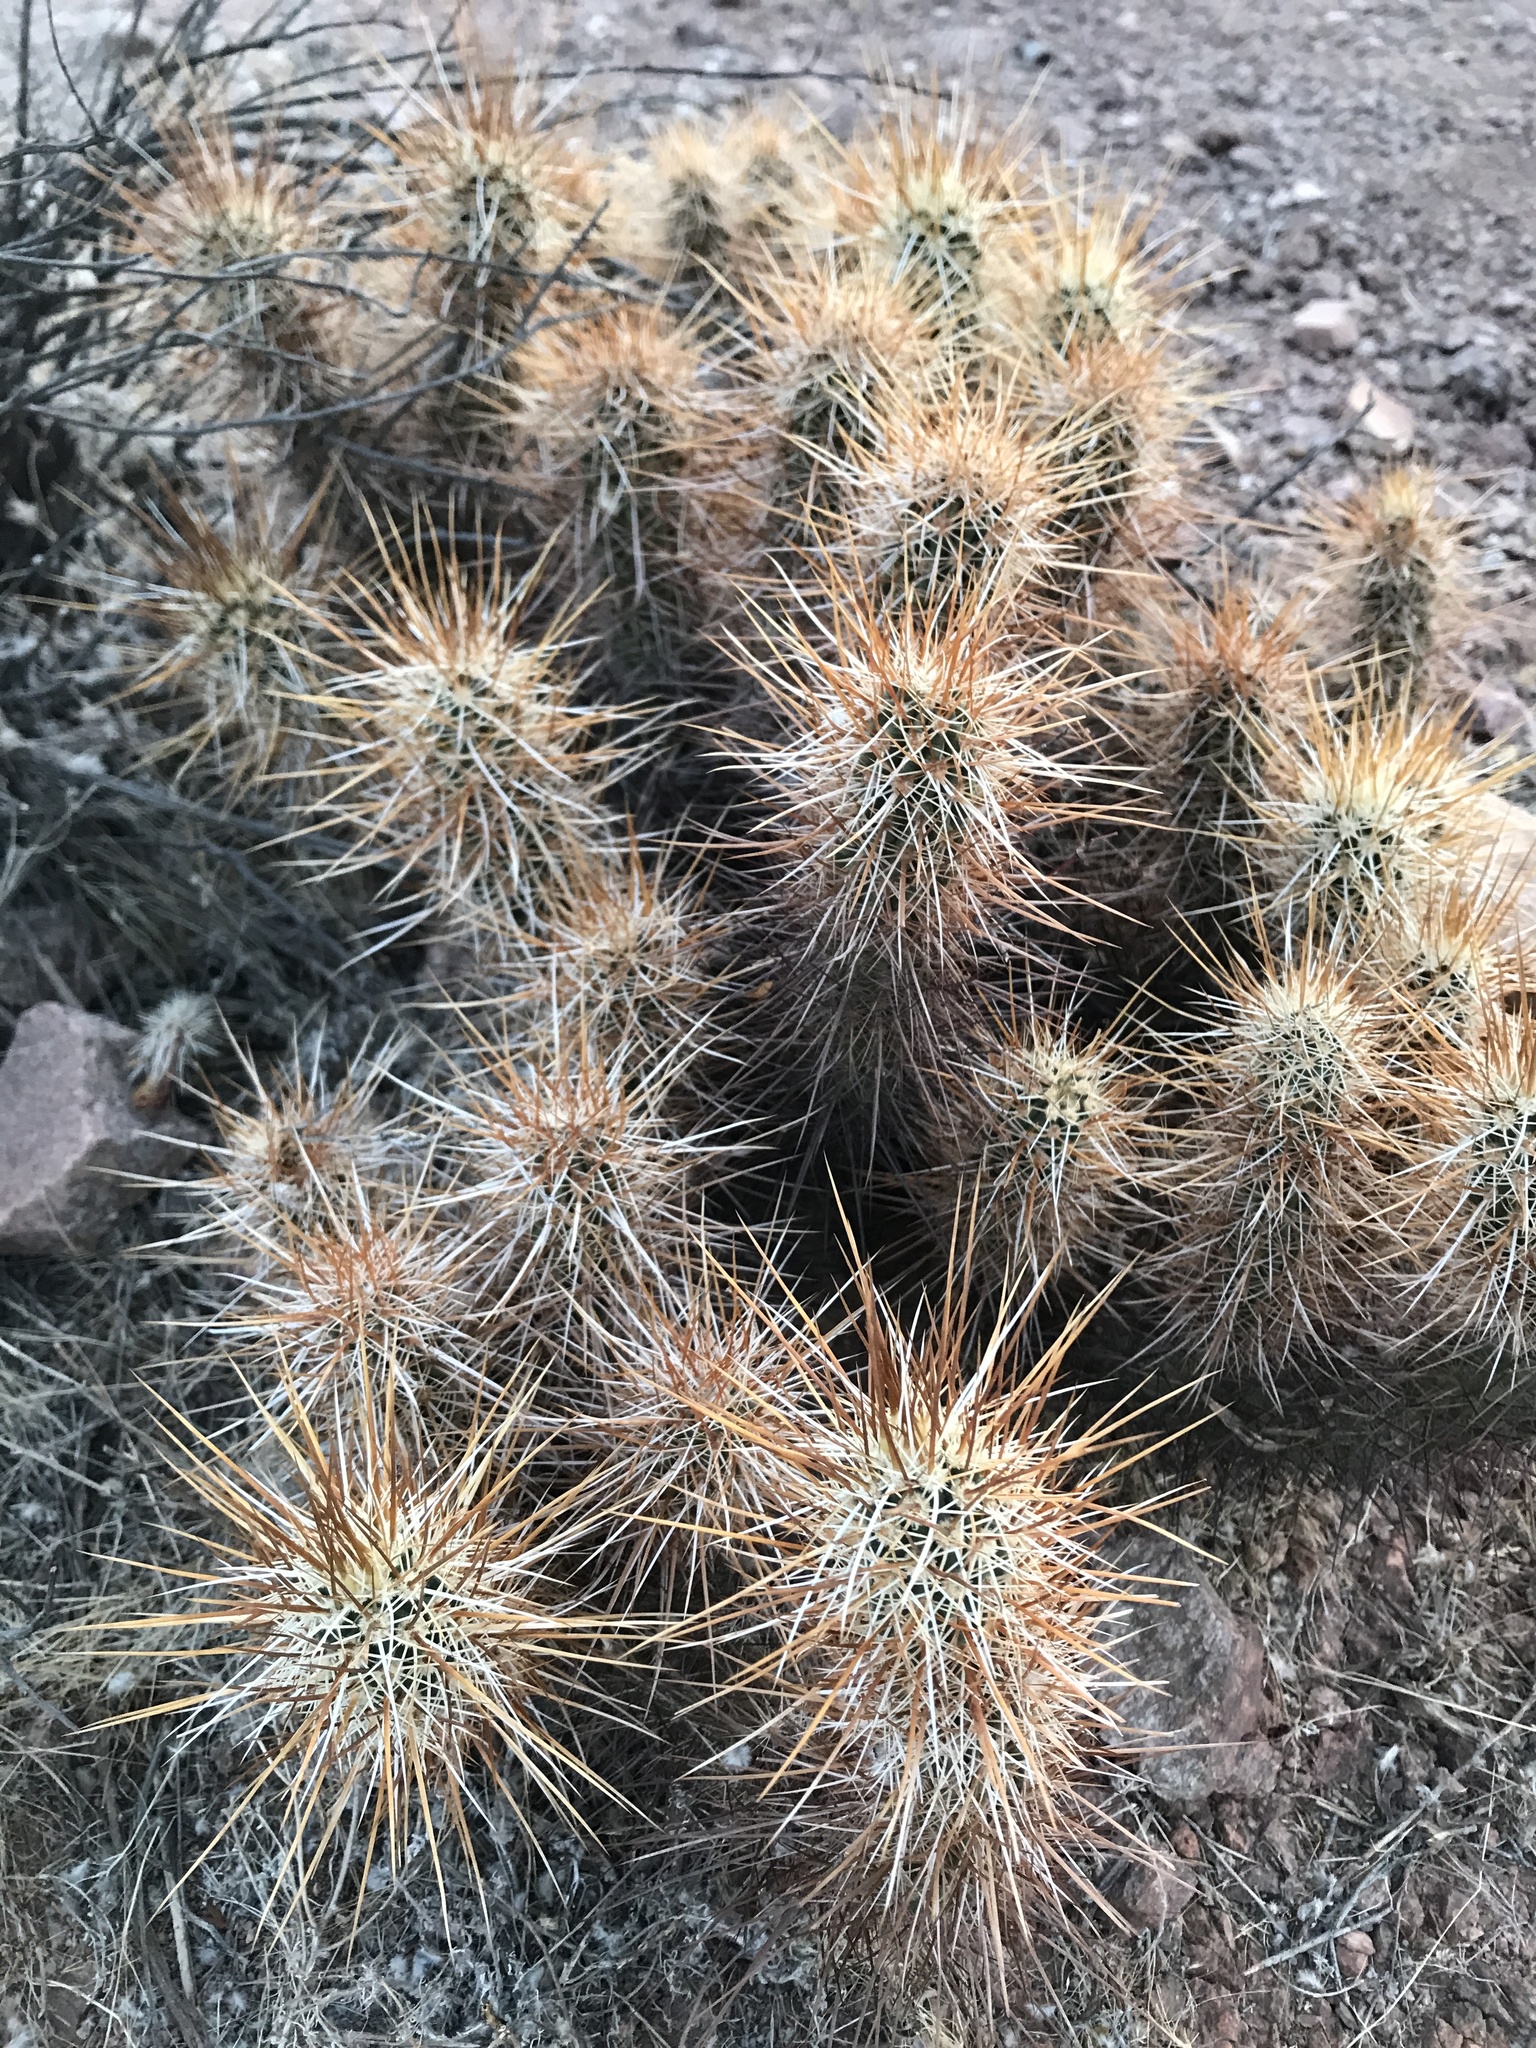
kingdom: Plantae
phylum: Tracheophyta
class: Magnoliopsida
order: Caryophyllales
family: Cactaceae
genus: Echinocereus
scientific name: Echinocereus engelmannii
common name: Engelmann's hedgehog cactus
